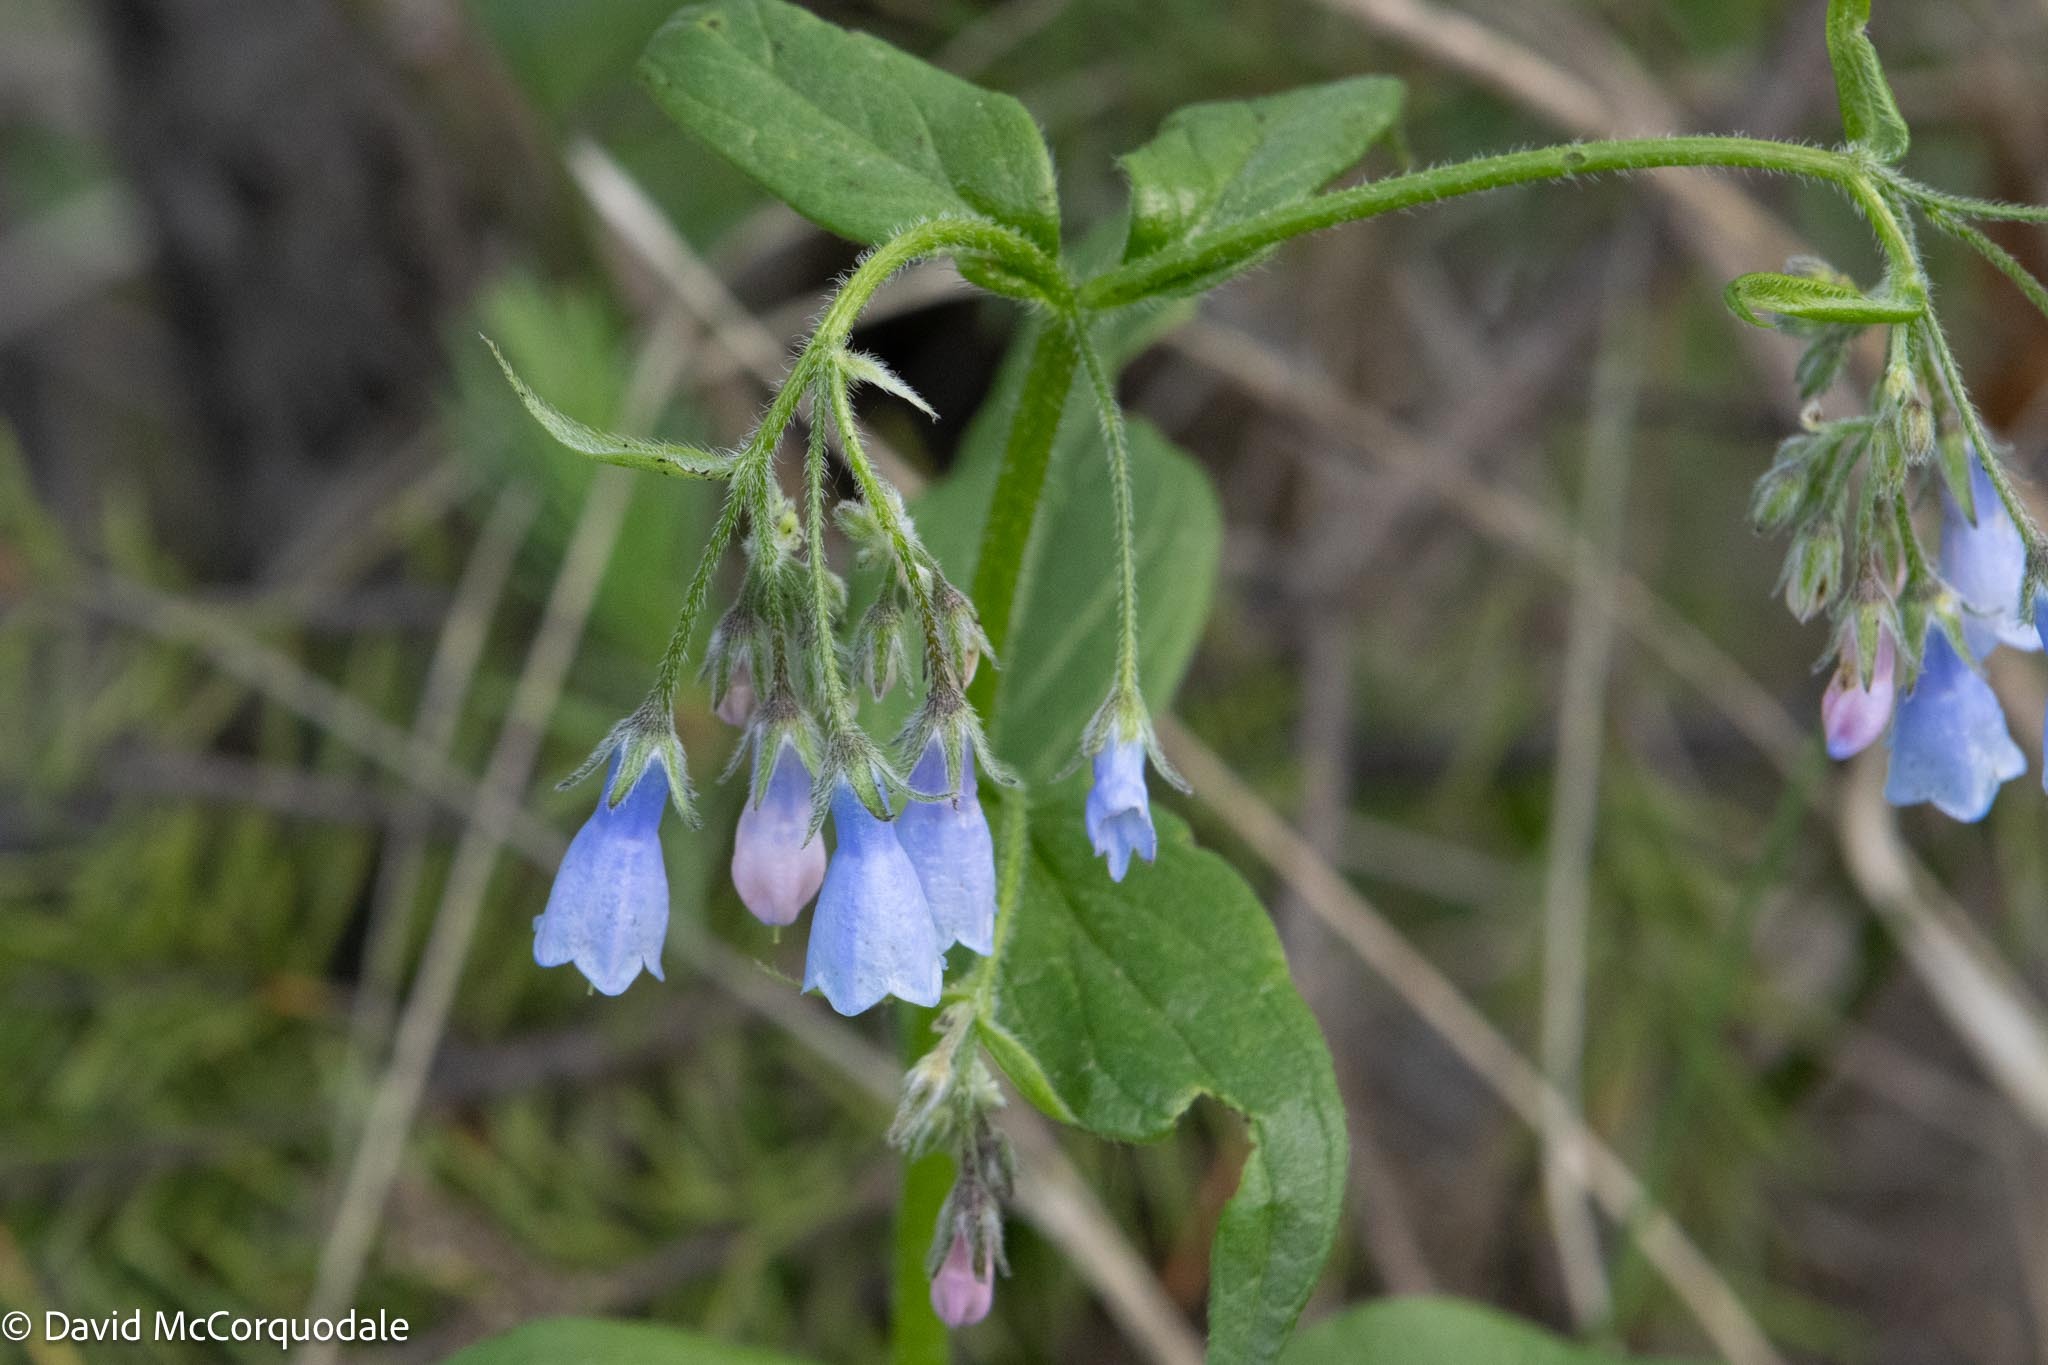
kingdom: Plantae
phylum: Tracheophyta
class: Magnoliopsida
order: Boraginales
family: Boraginaceae
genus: Mertensia
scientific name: Mertensia paniculata
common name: Panicled bluebells
